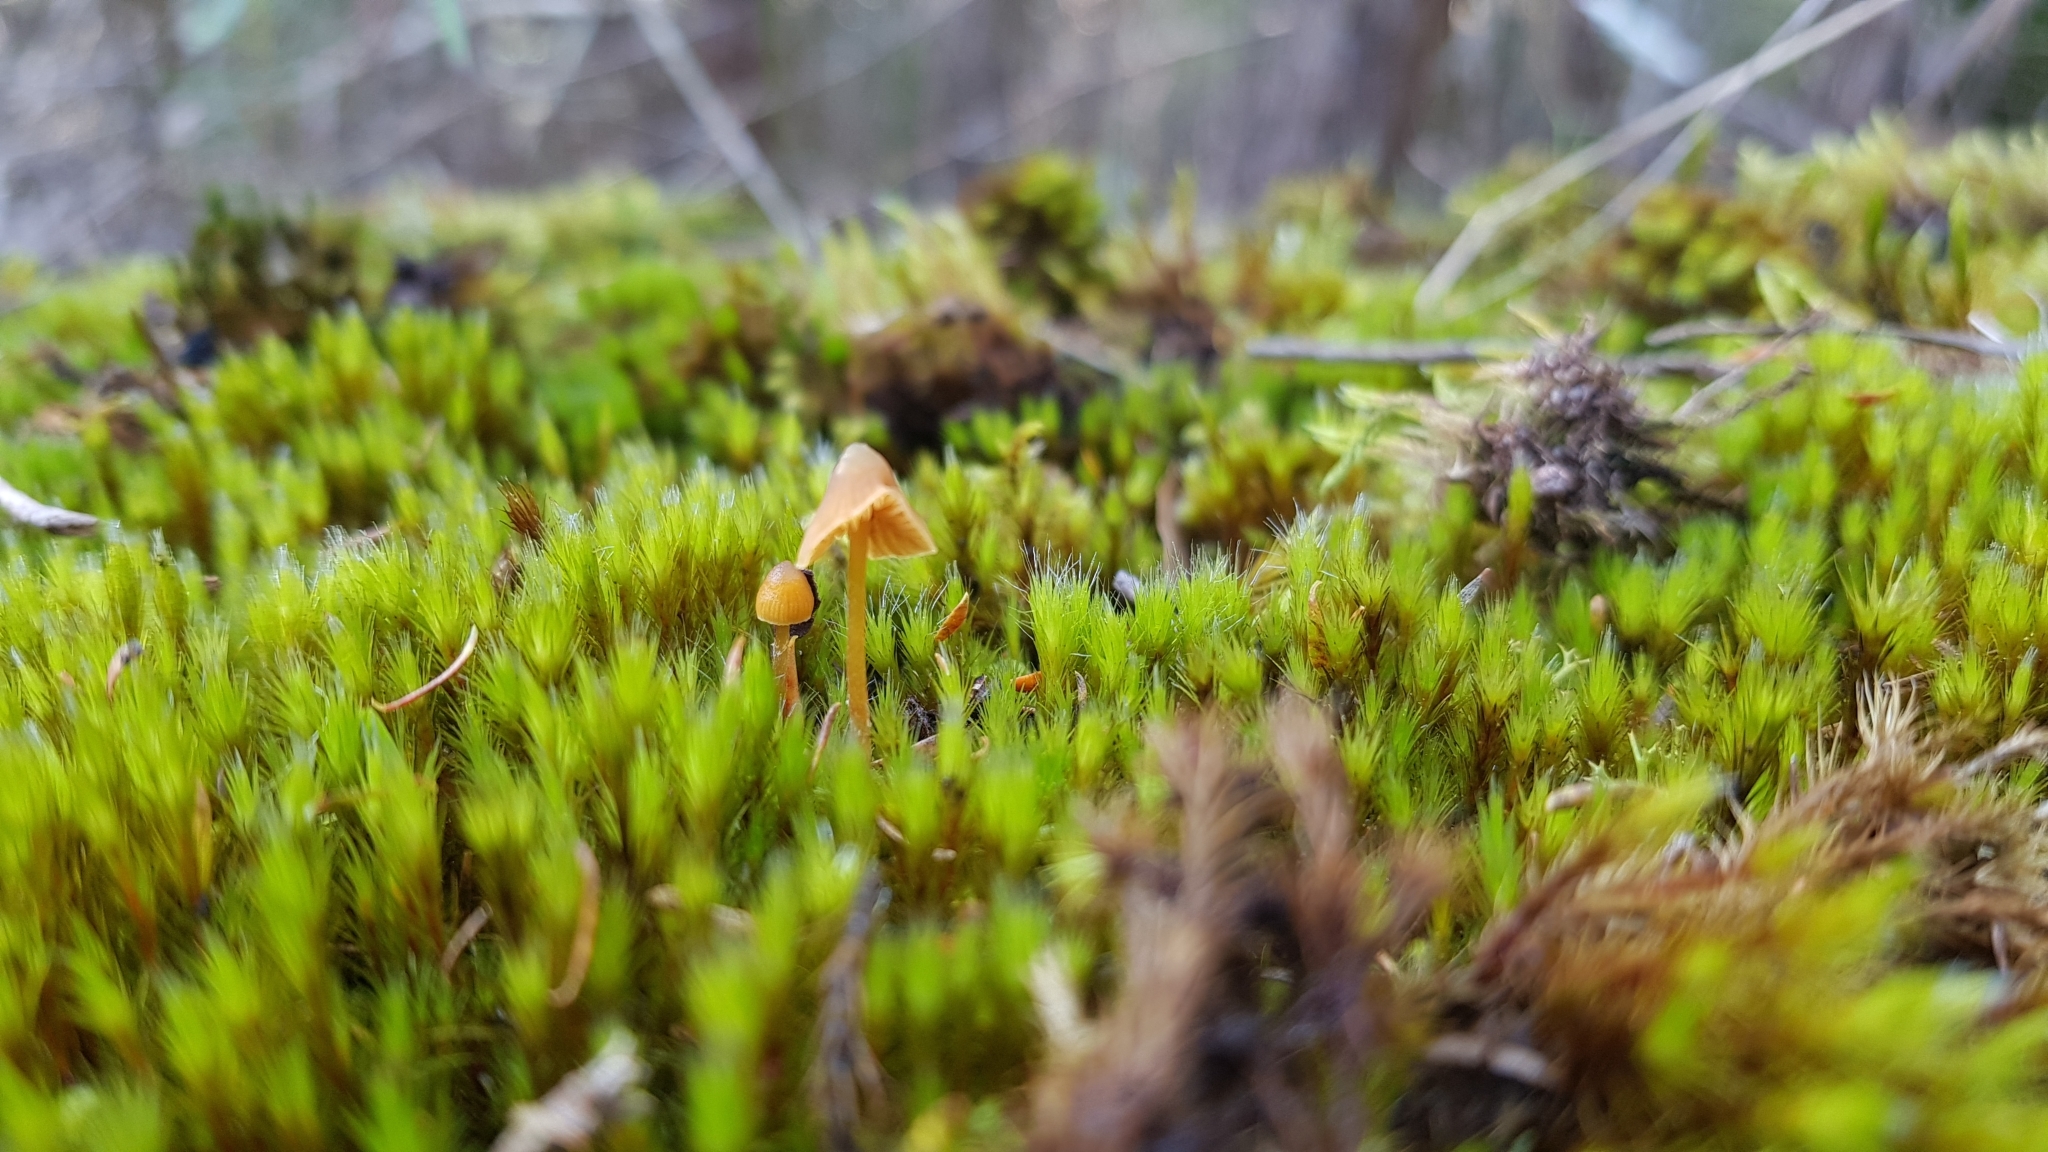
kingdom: Fungi
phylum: Basidiomycota
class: Agaricomycetes
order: Agaricales
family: Hymenogastraceae
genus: Galerina
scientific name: Galerina hypnorum
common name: Moss bell
